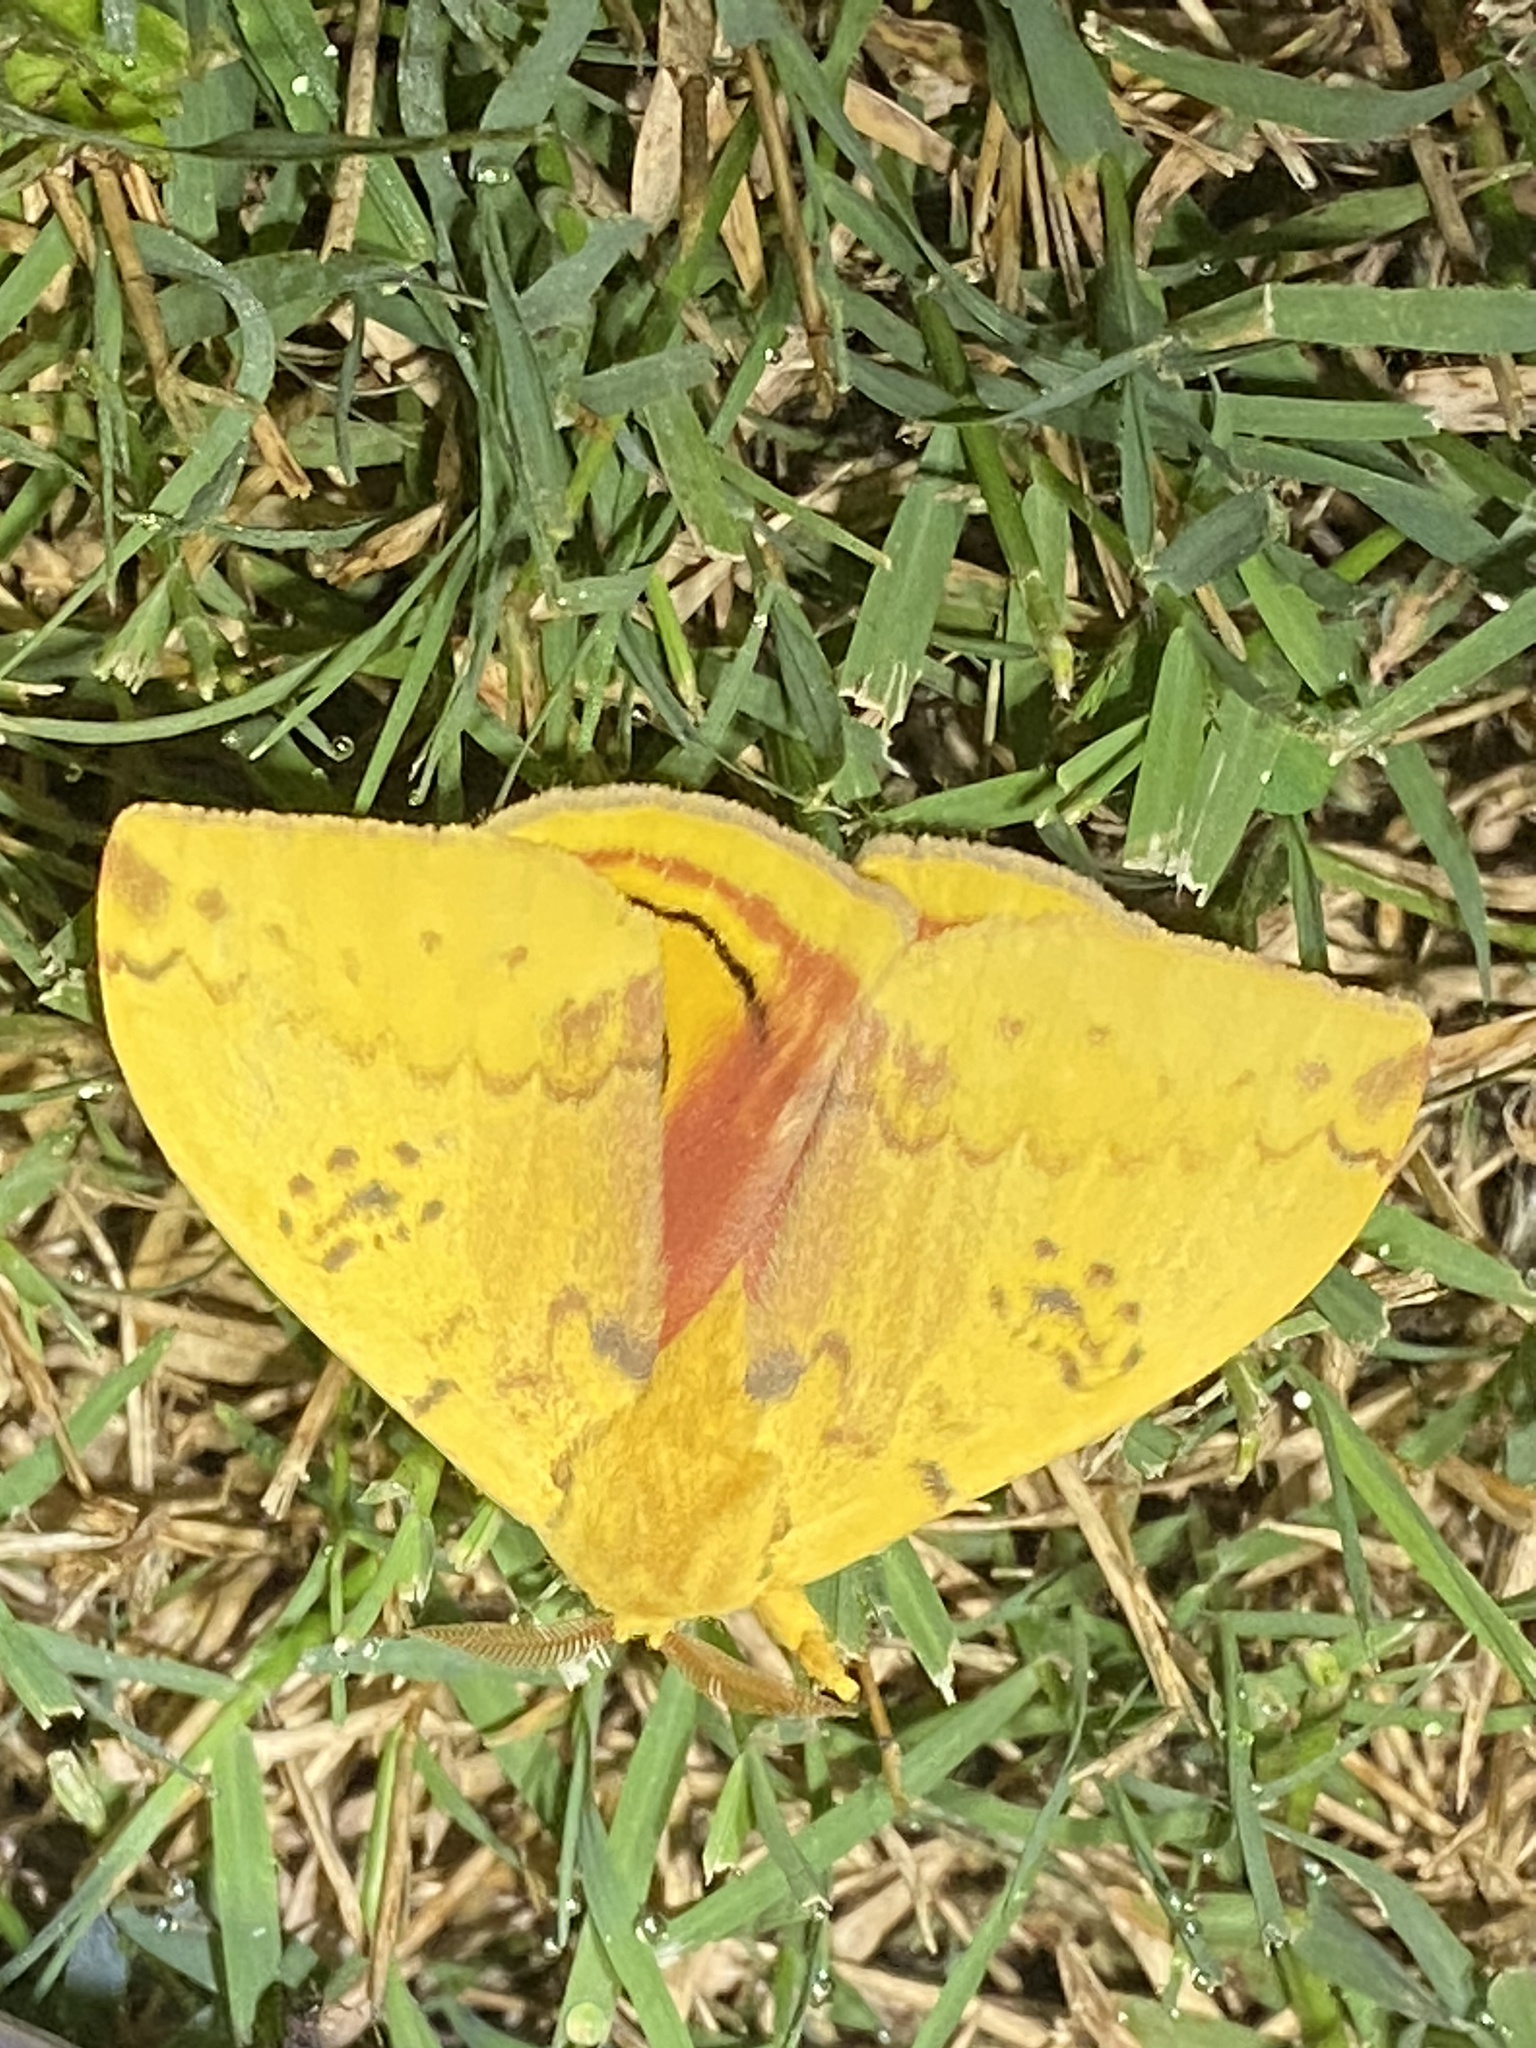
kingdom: Animalia
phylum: Arthropoda
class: Insecta
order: Lepidoptera
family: Saturniidae
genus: Automeris
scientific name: Automeris io
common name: Io moth
